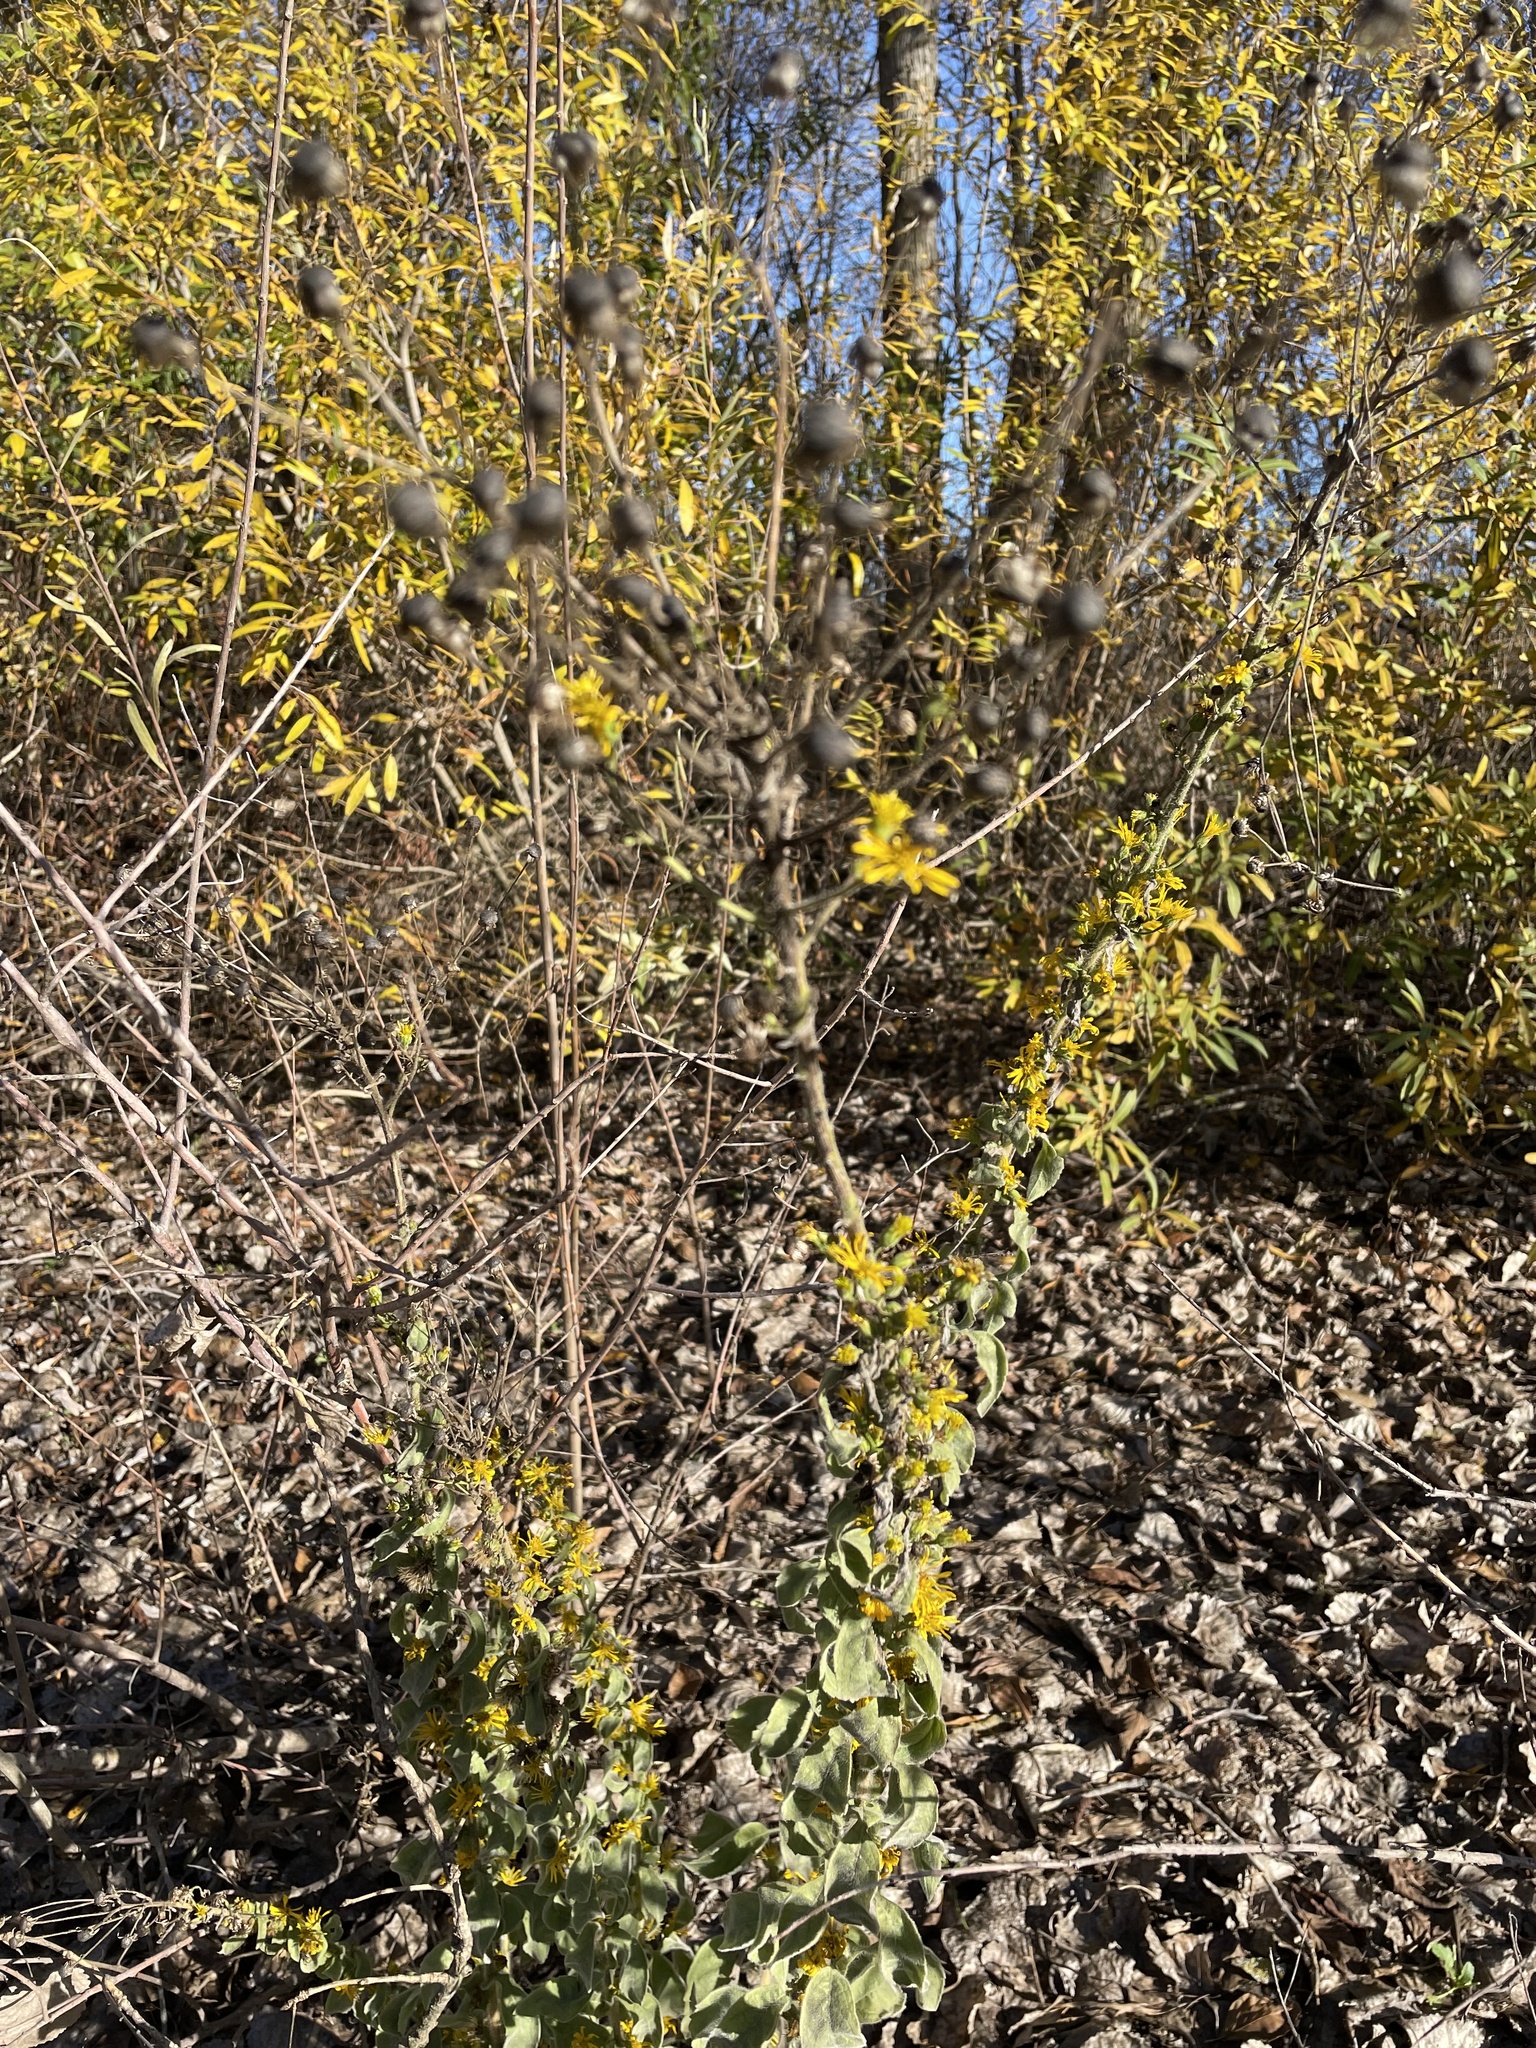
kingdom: Plantae
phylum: Tracheophyta
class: Magnoliopsida
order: Asterales
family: Asteraceae
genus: Heterotheca
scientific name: Heterotheca grandiflora
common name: Telegraphweed
